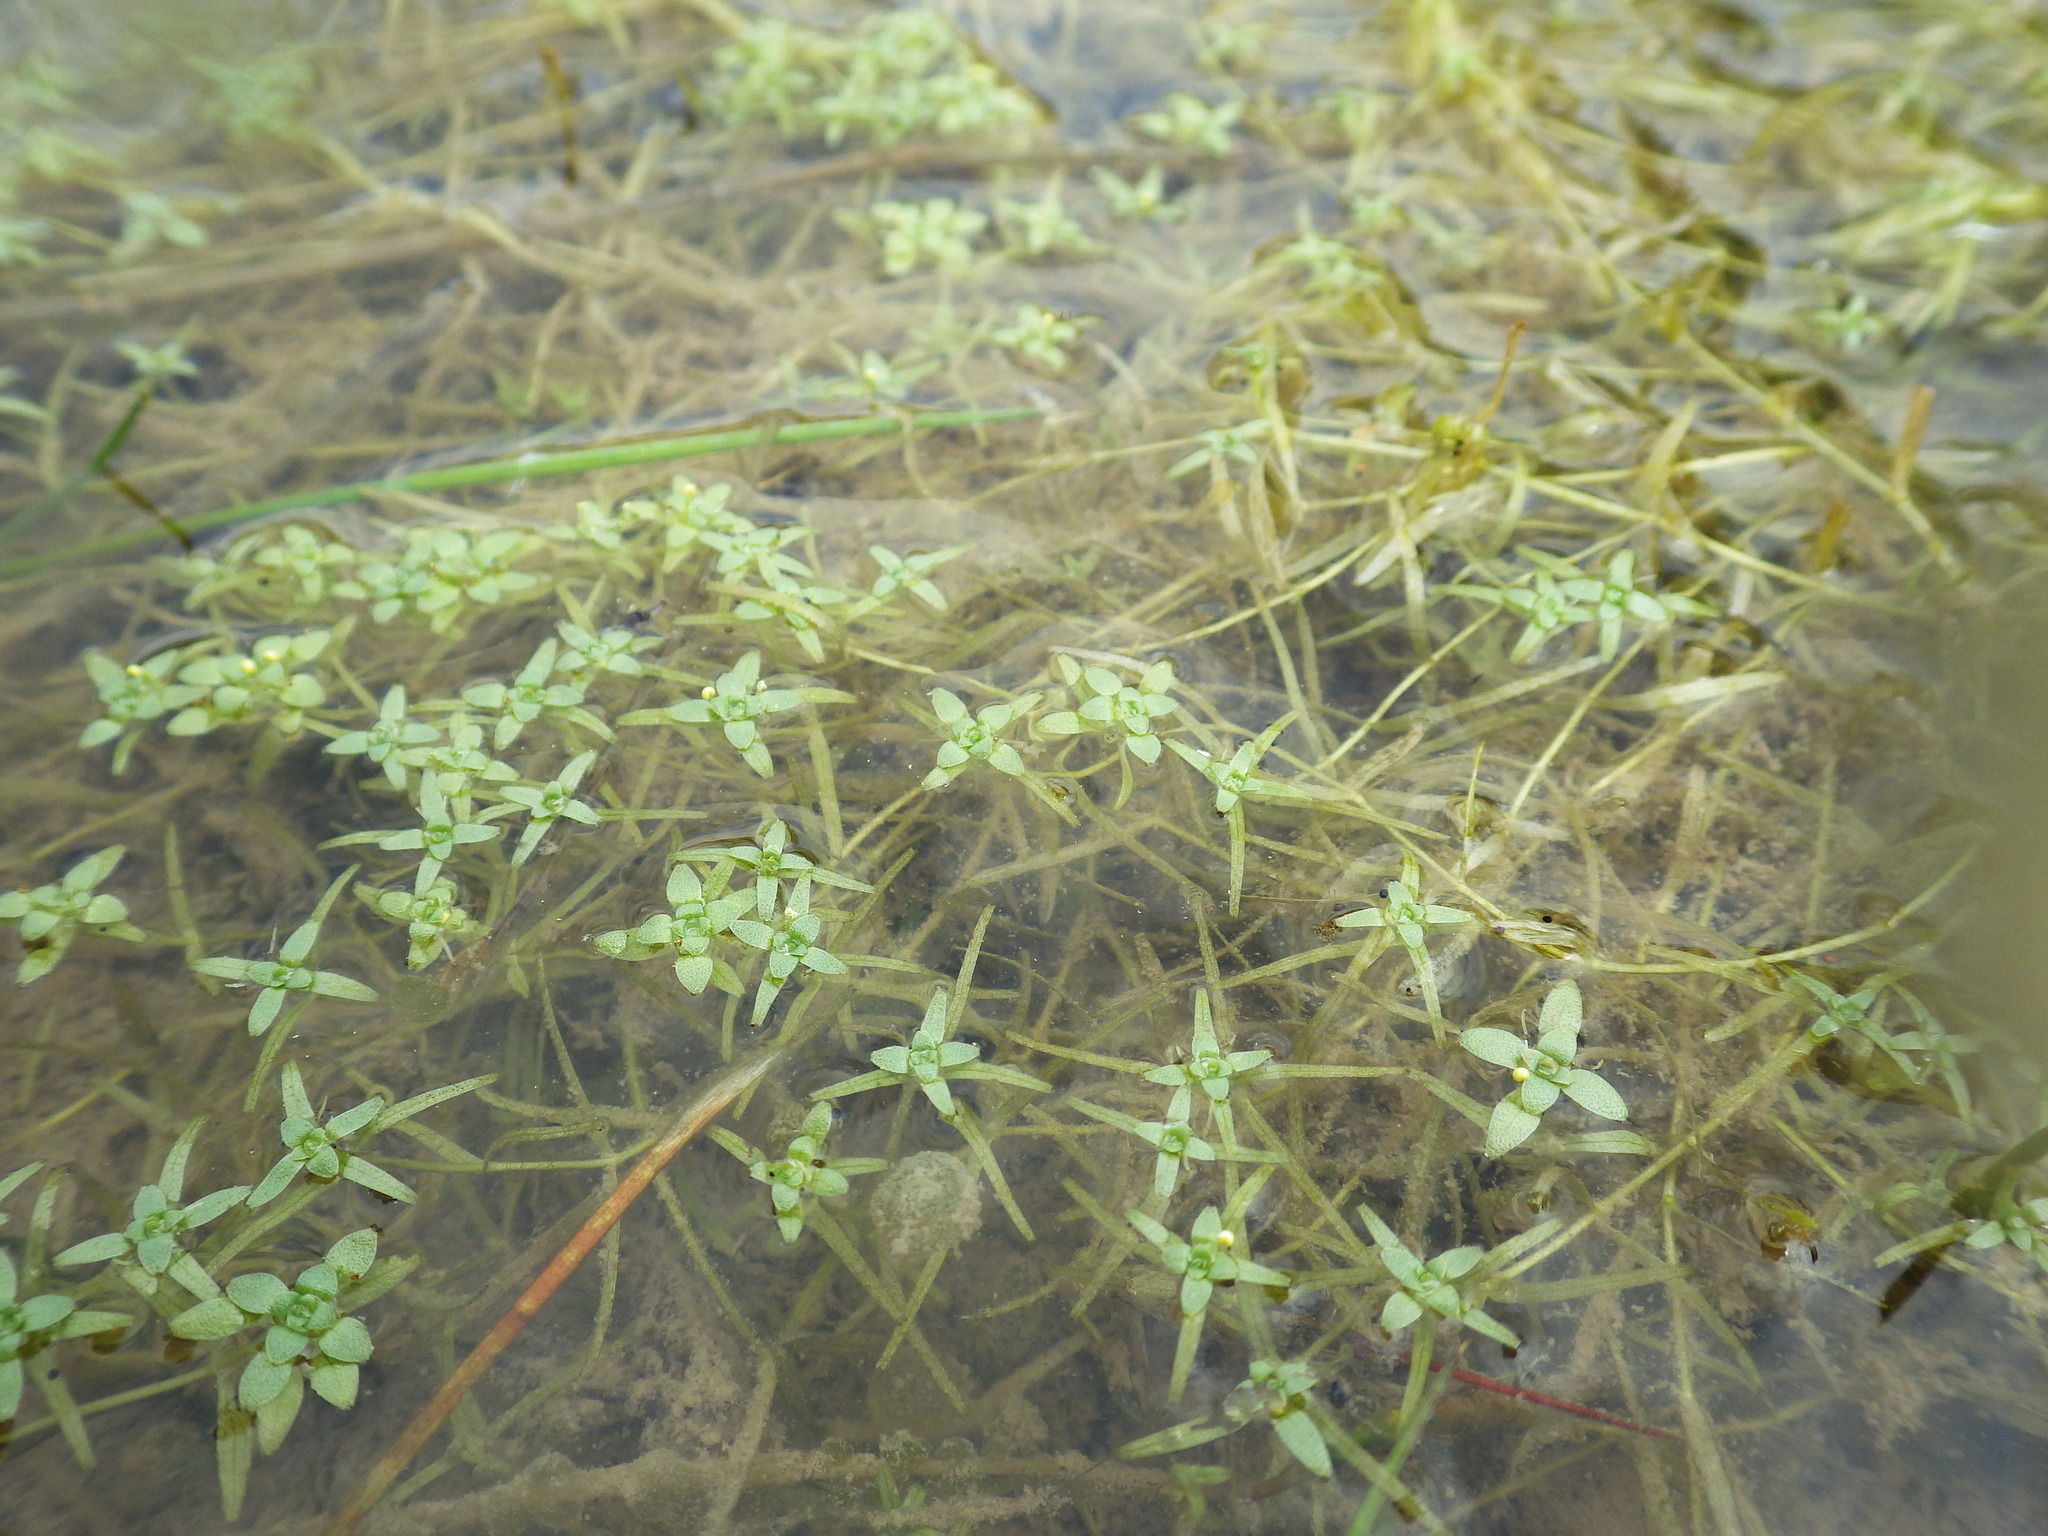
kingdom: Plantae
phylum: Tracheophyta
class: Magnoliopsida
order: Lamiales
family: Plantaginaceae
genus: Callitriche
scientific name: Callitriche hamulata
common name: Intermediate water-starwort
